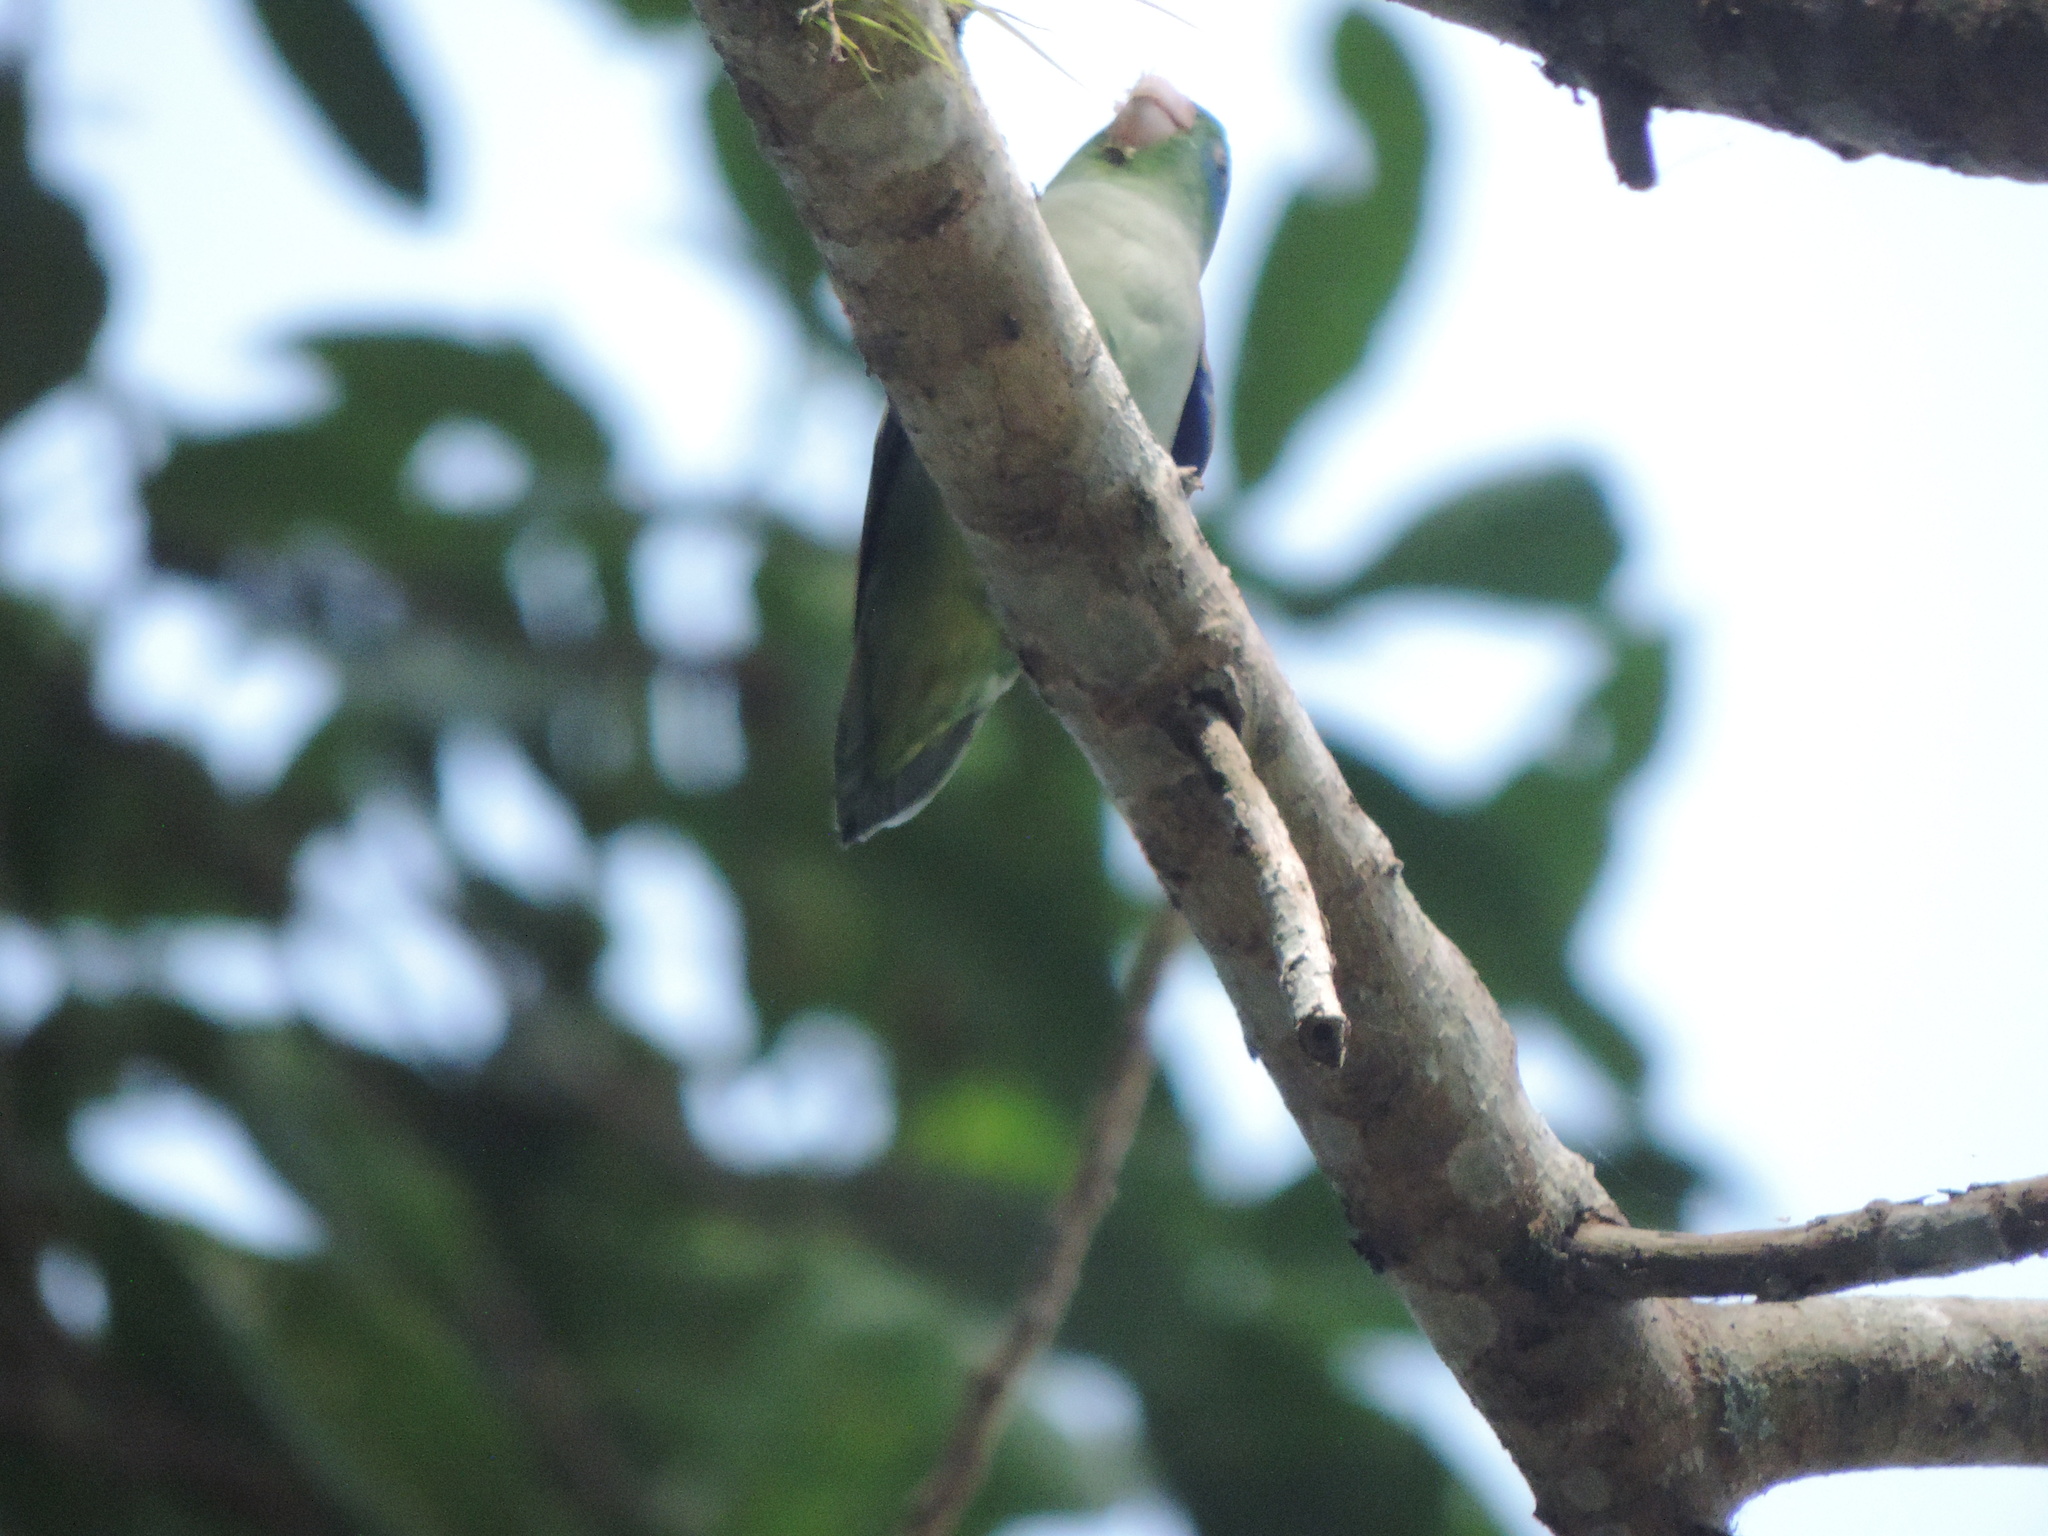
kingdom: Animalia
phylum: Chordata
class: Aves
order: Psittaciformes
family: Psittacidae
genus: Forpus
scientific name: Forpus conspicillatus
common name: Spectacled parrotlet
